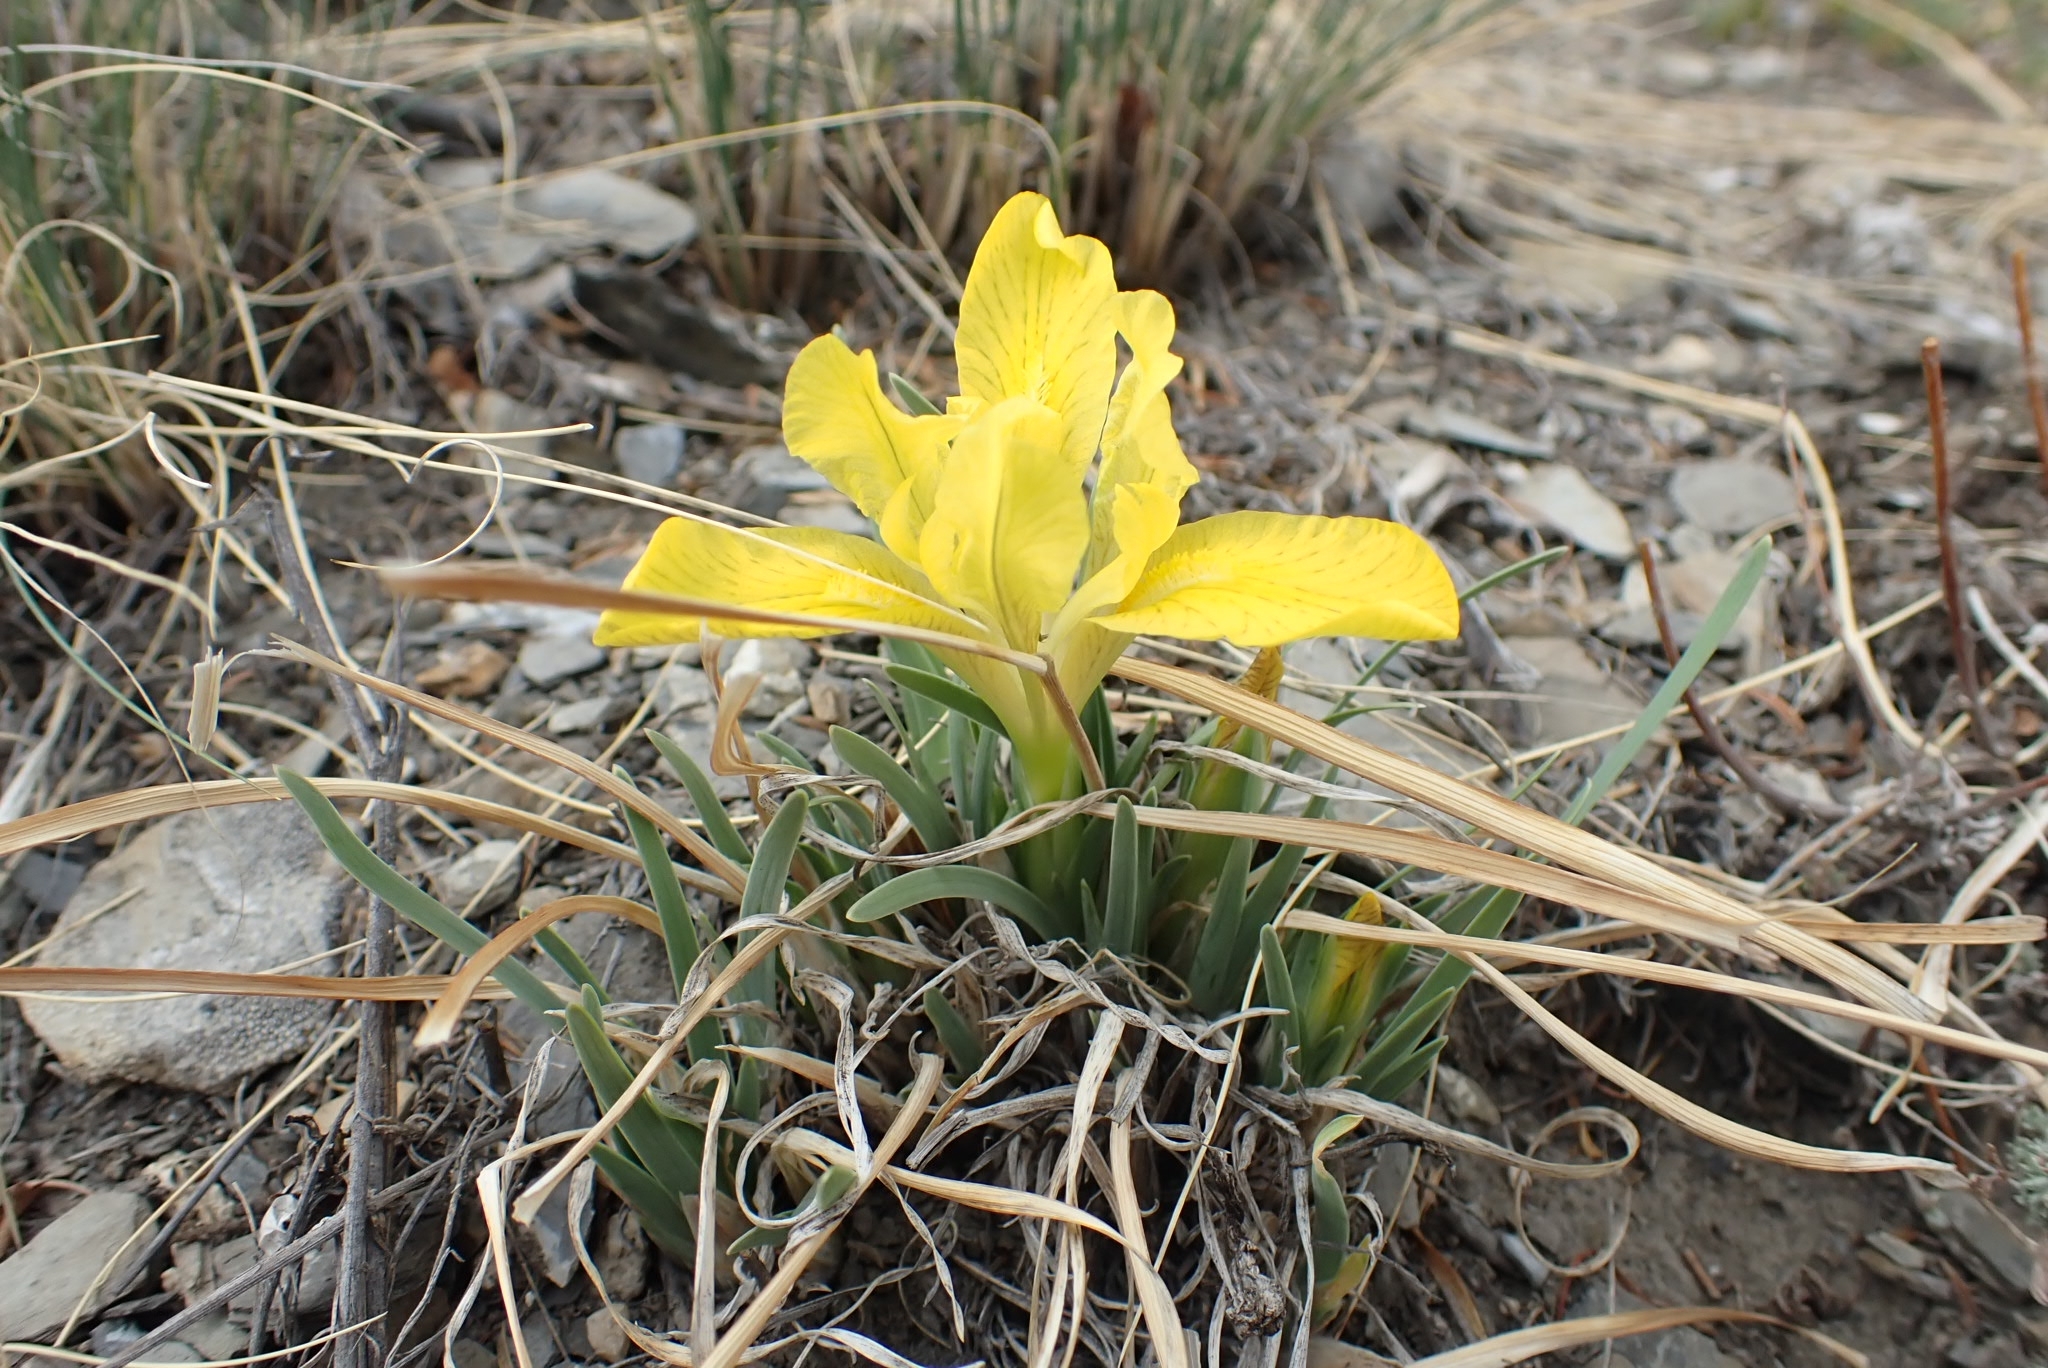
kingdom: Plantae
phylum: Tracheophyta
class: Liliopsida
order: Asparagales
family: Iridaceae
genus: Iris
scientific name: Iris humilis
